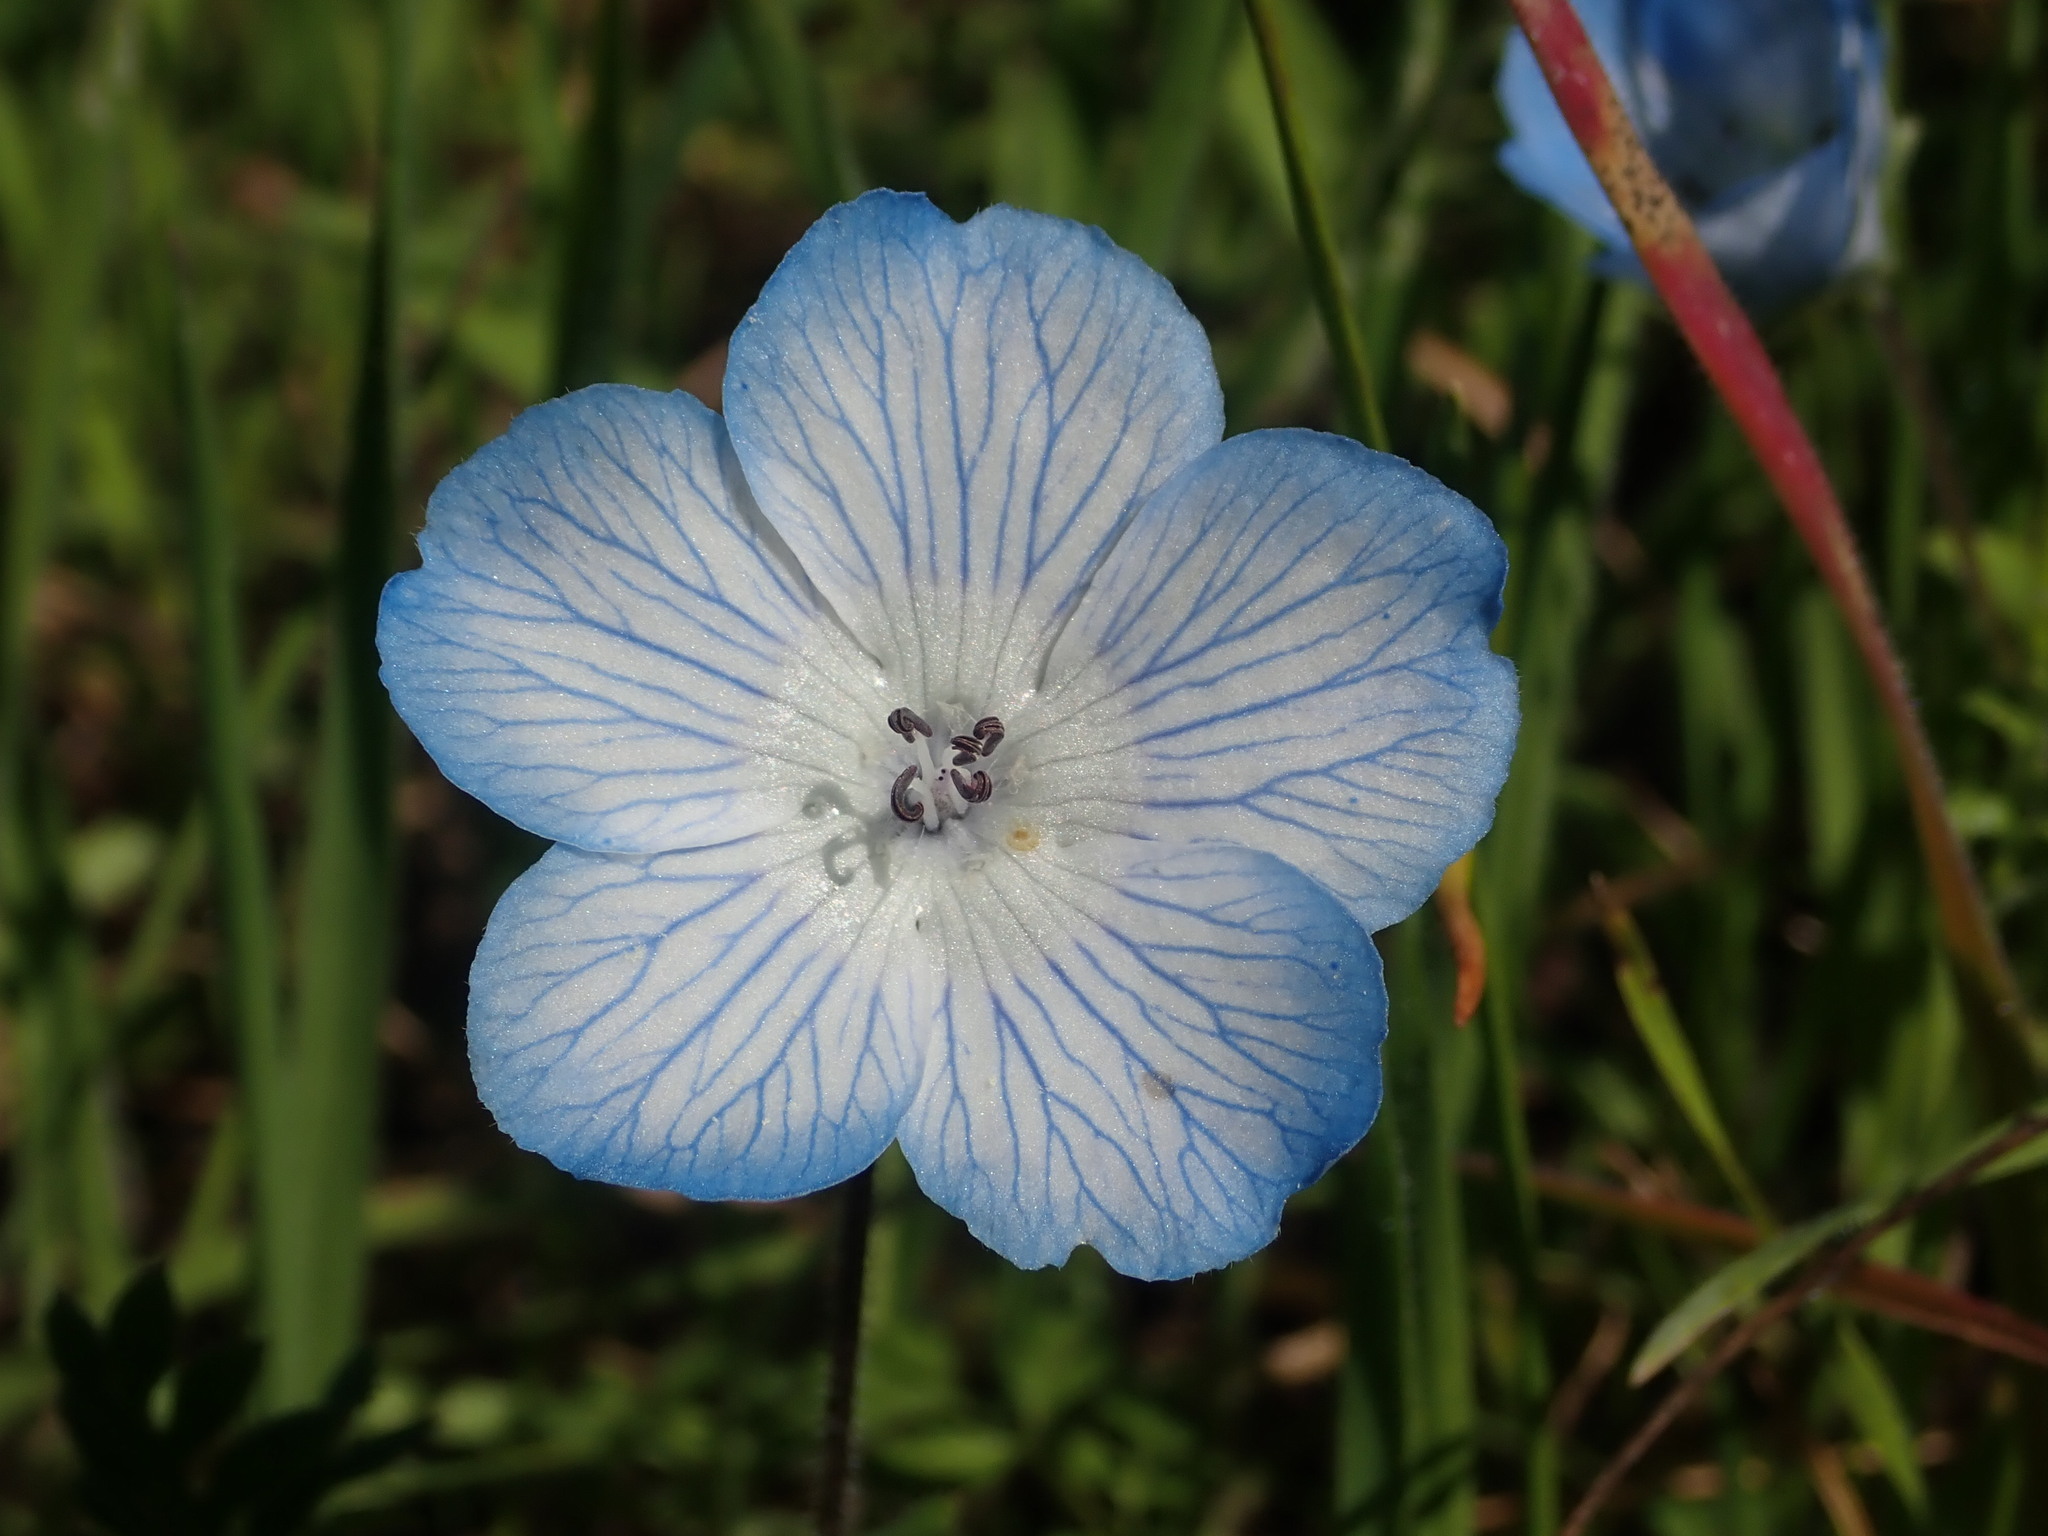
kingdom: Plantae
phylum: Tracheophyta
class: Magnoliopsida
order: Boraginales
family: Hydrophyllaceae
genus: Nemophila
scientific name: Nemophila menziesii
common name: Baby's-blue-eyes
